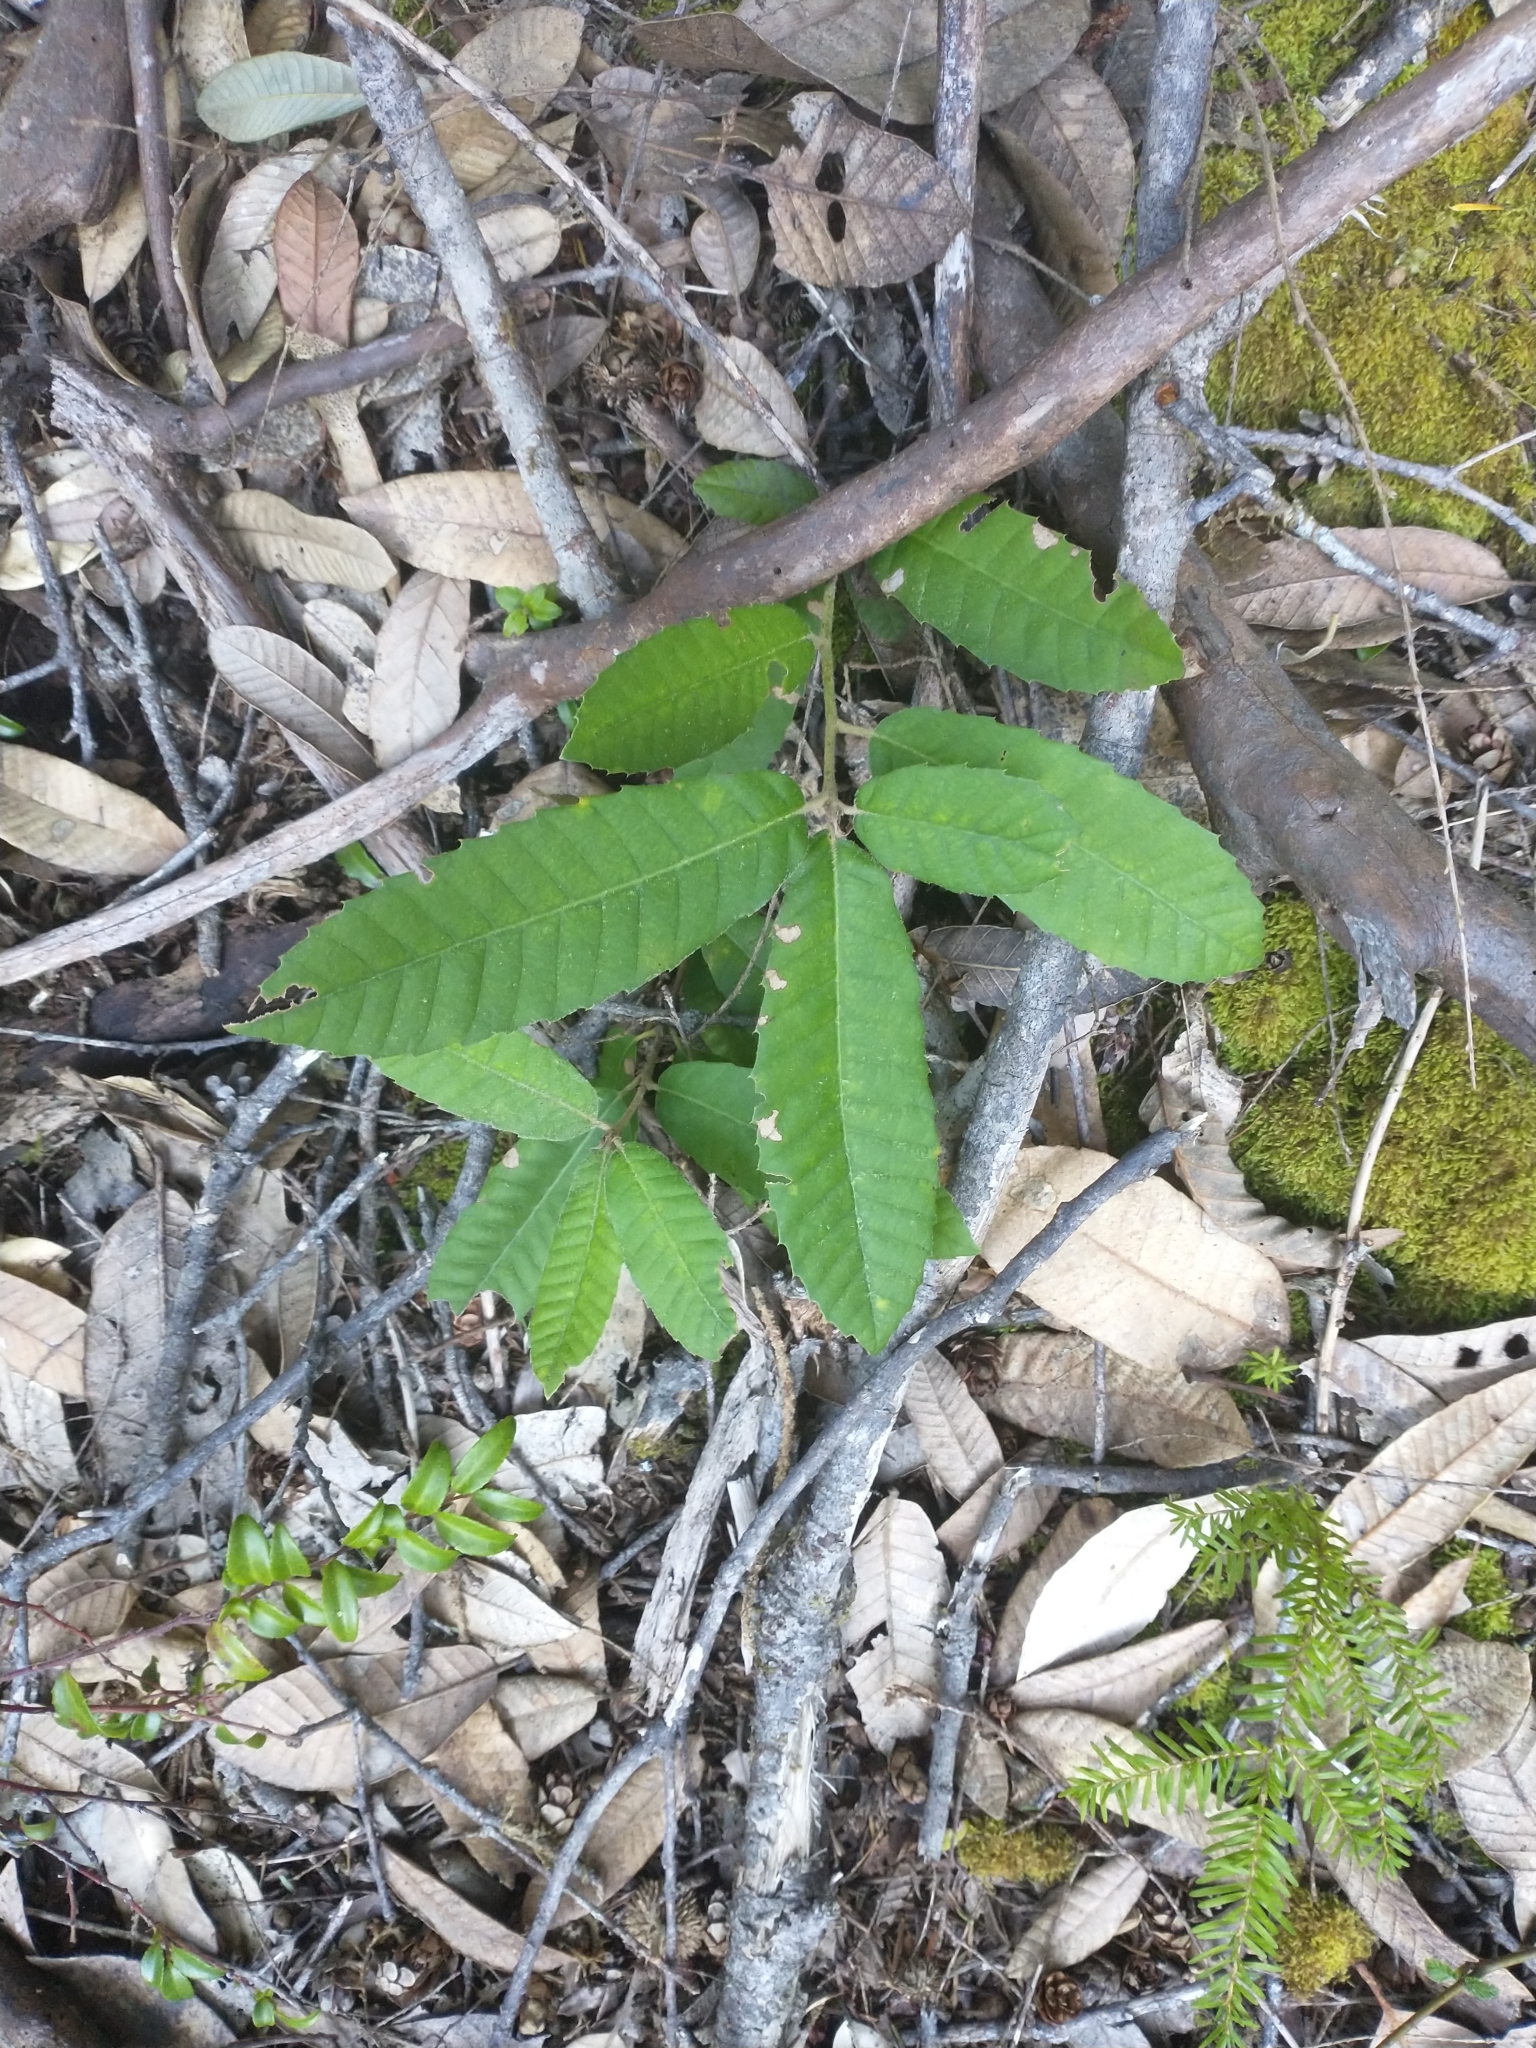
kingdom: Plantae
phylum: Tracheophyta
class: Magnoliopsida
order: Fagales
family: Fagaceae
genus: Notholithocarpus
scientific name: Notholithocarpus densiflorus
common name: Tan bark oak
